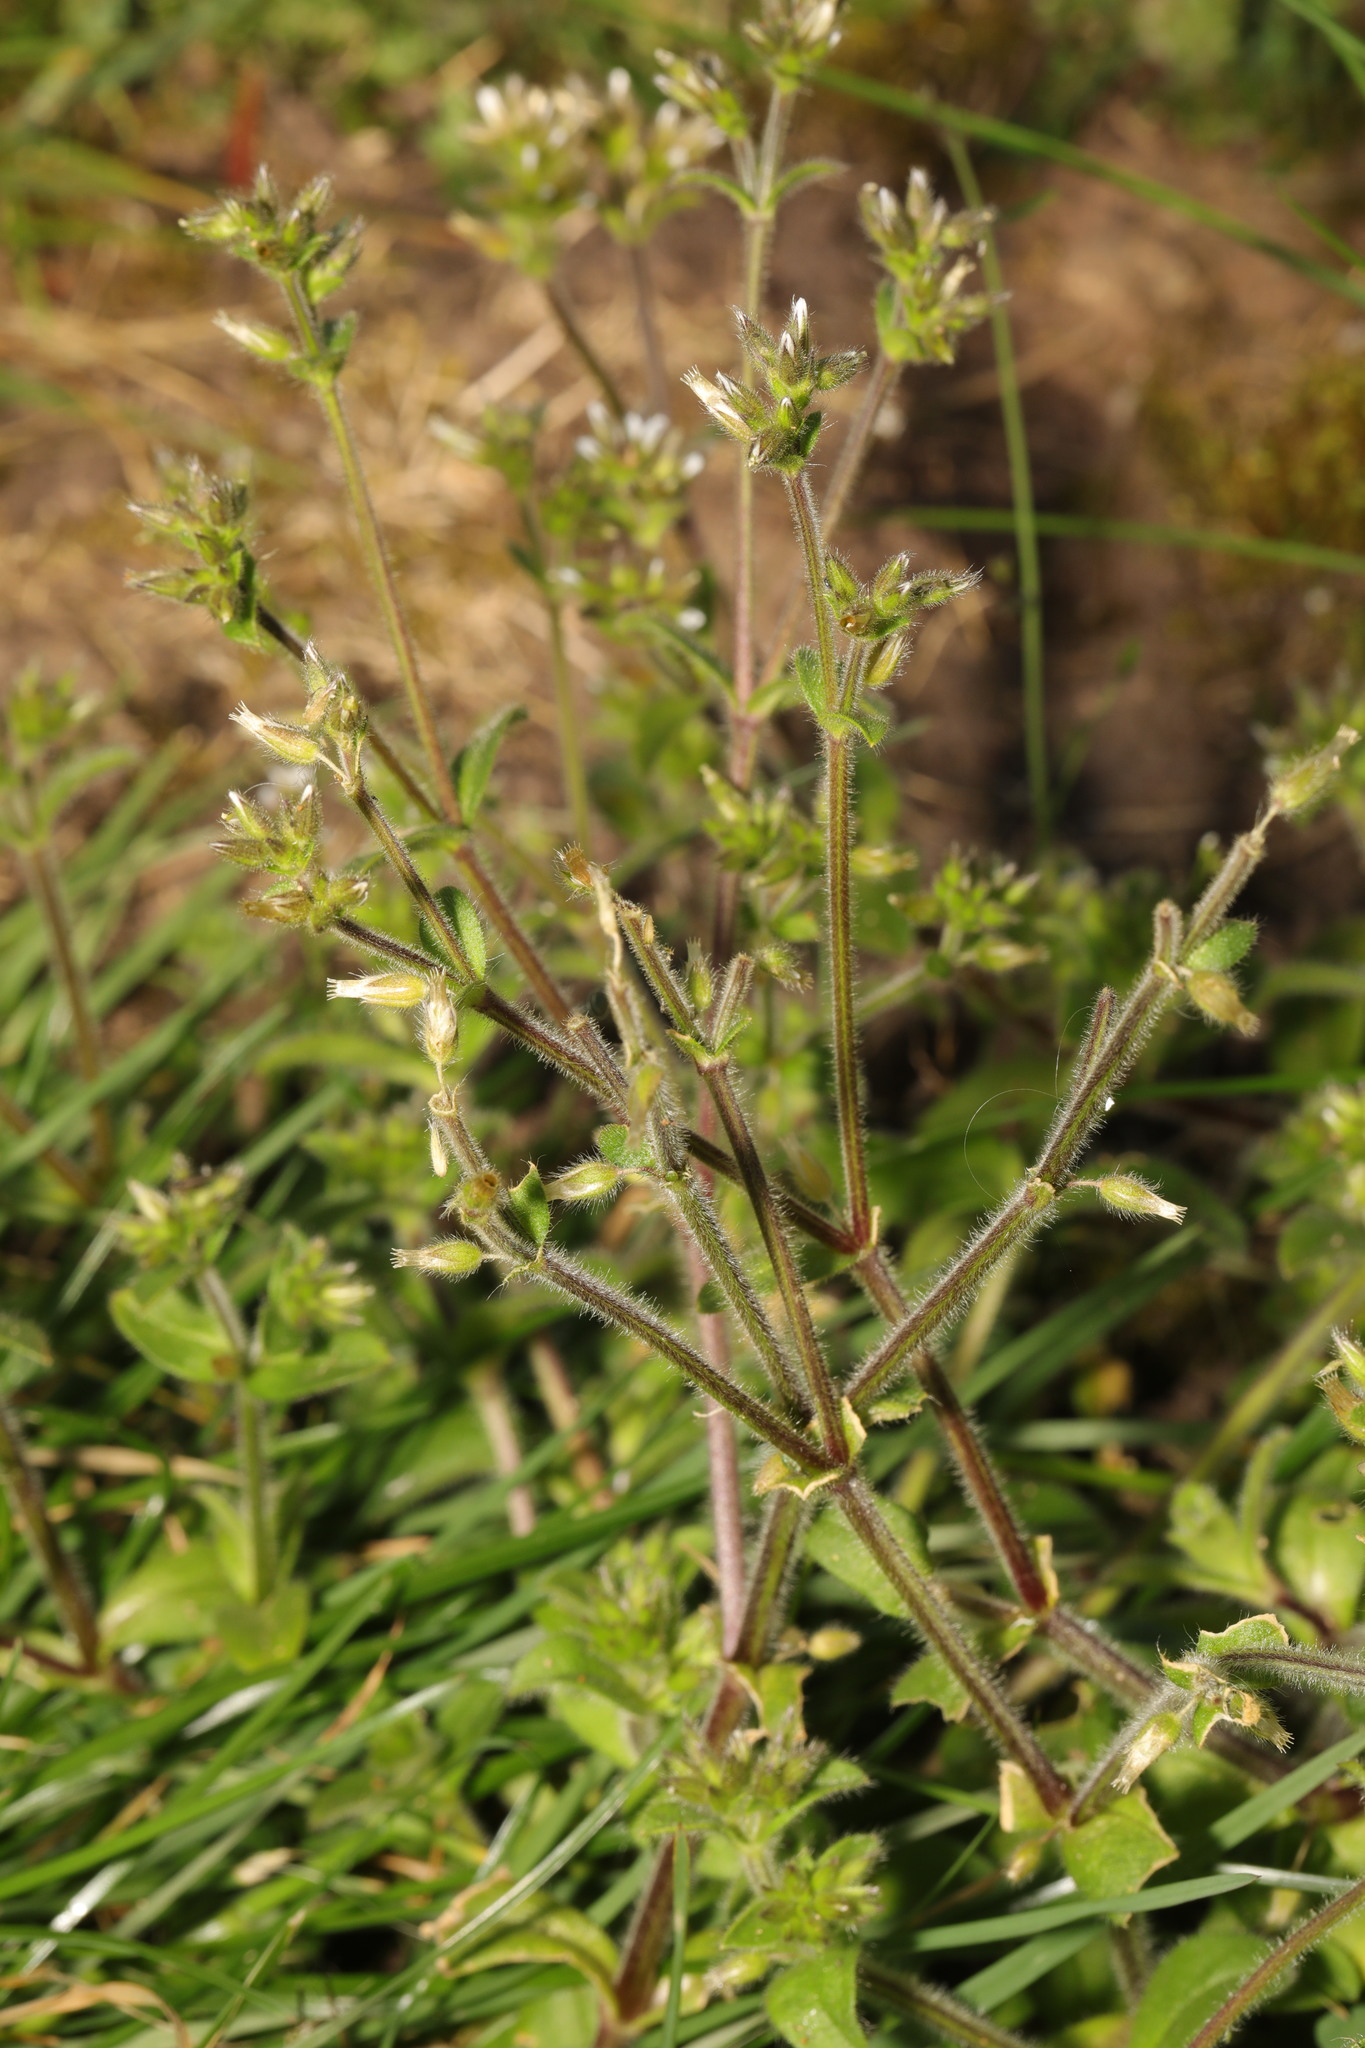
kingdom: Plantae
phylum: Tracheophyta
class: Magnoliopsida
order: Caryophyllales
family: Caryophyllaceae
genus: Cerastium
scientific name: Cerastium glomeratum
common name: Sticky chickweed
